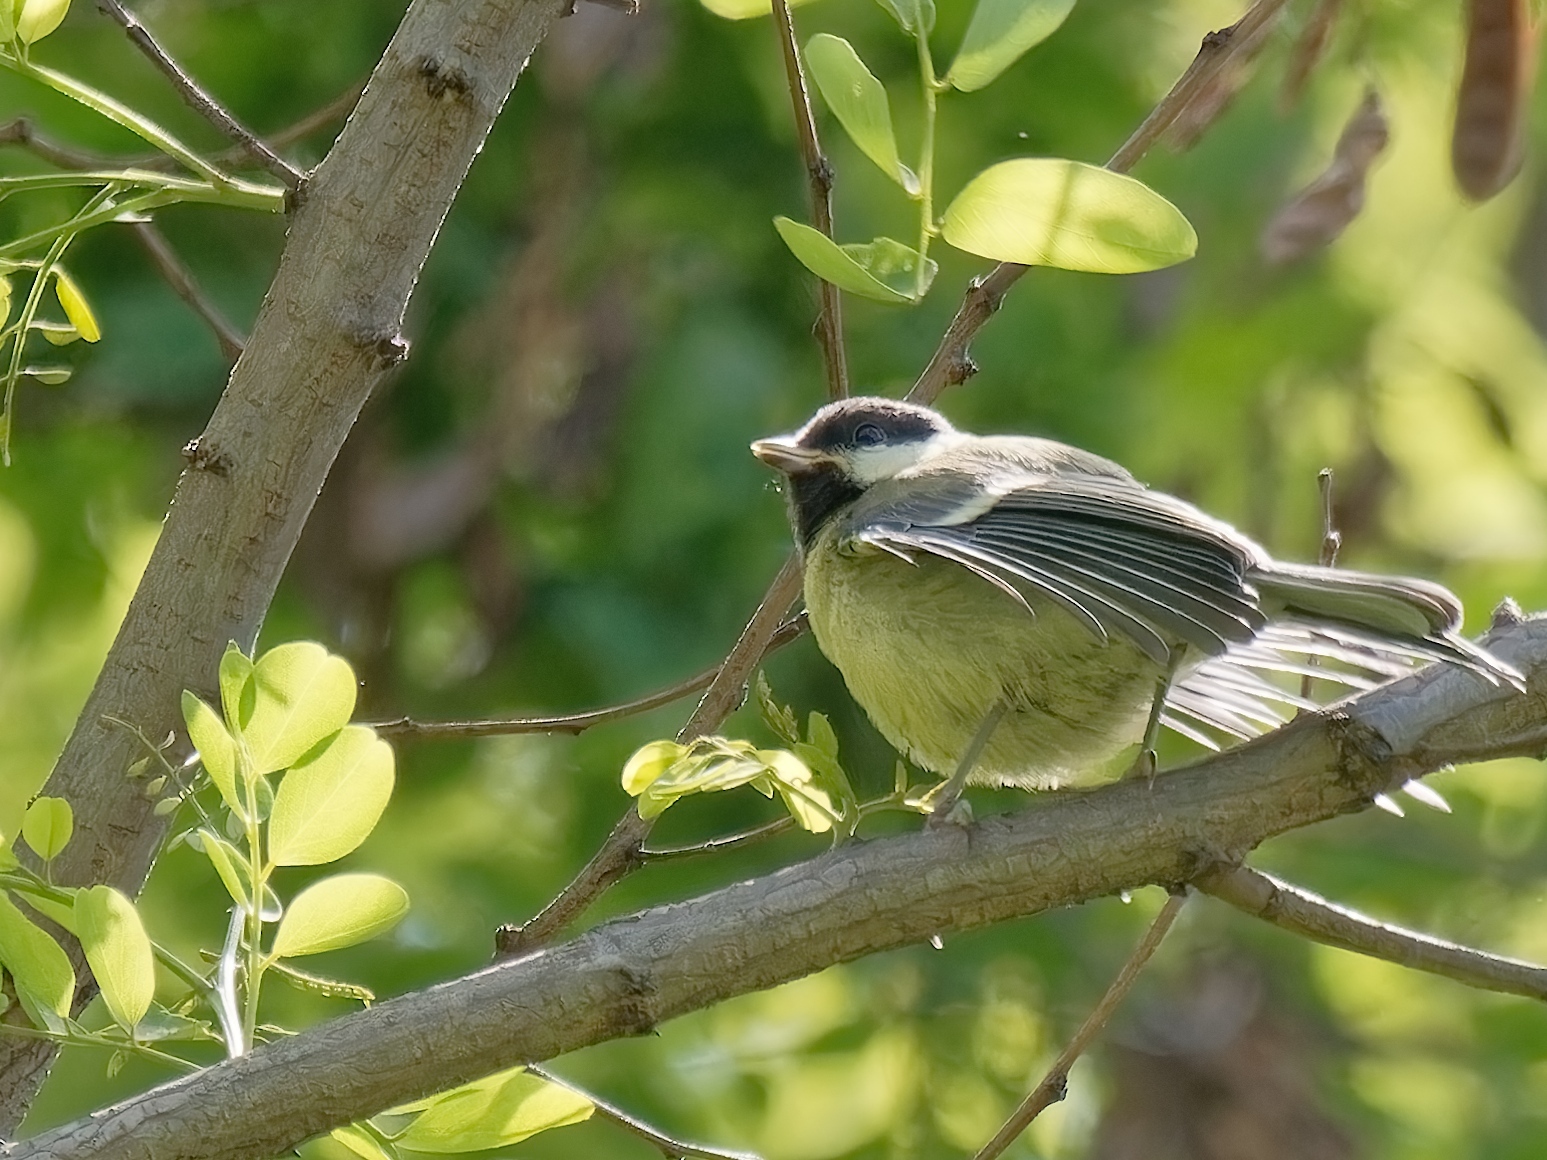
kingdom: Animalia
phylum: Chordata
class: Aves
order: Passeriformes
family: Paridae
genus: Parus
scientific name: Parus major
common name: Great tit
